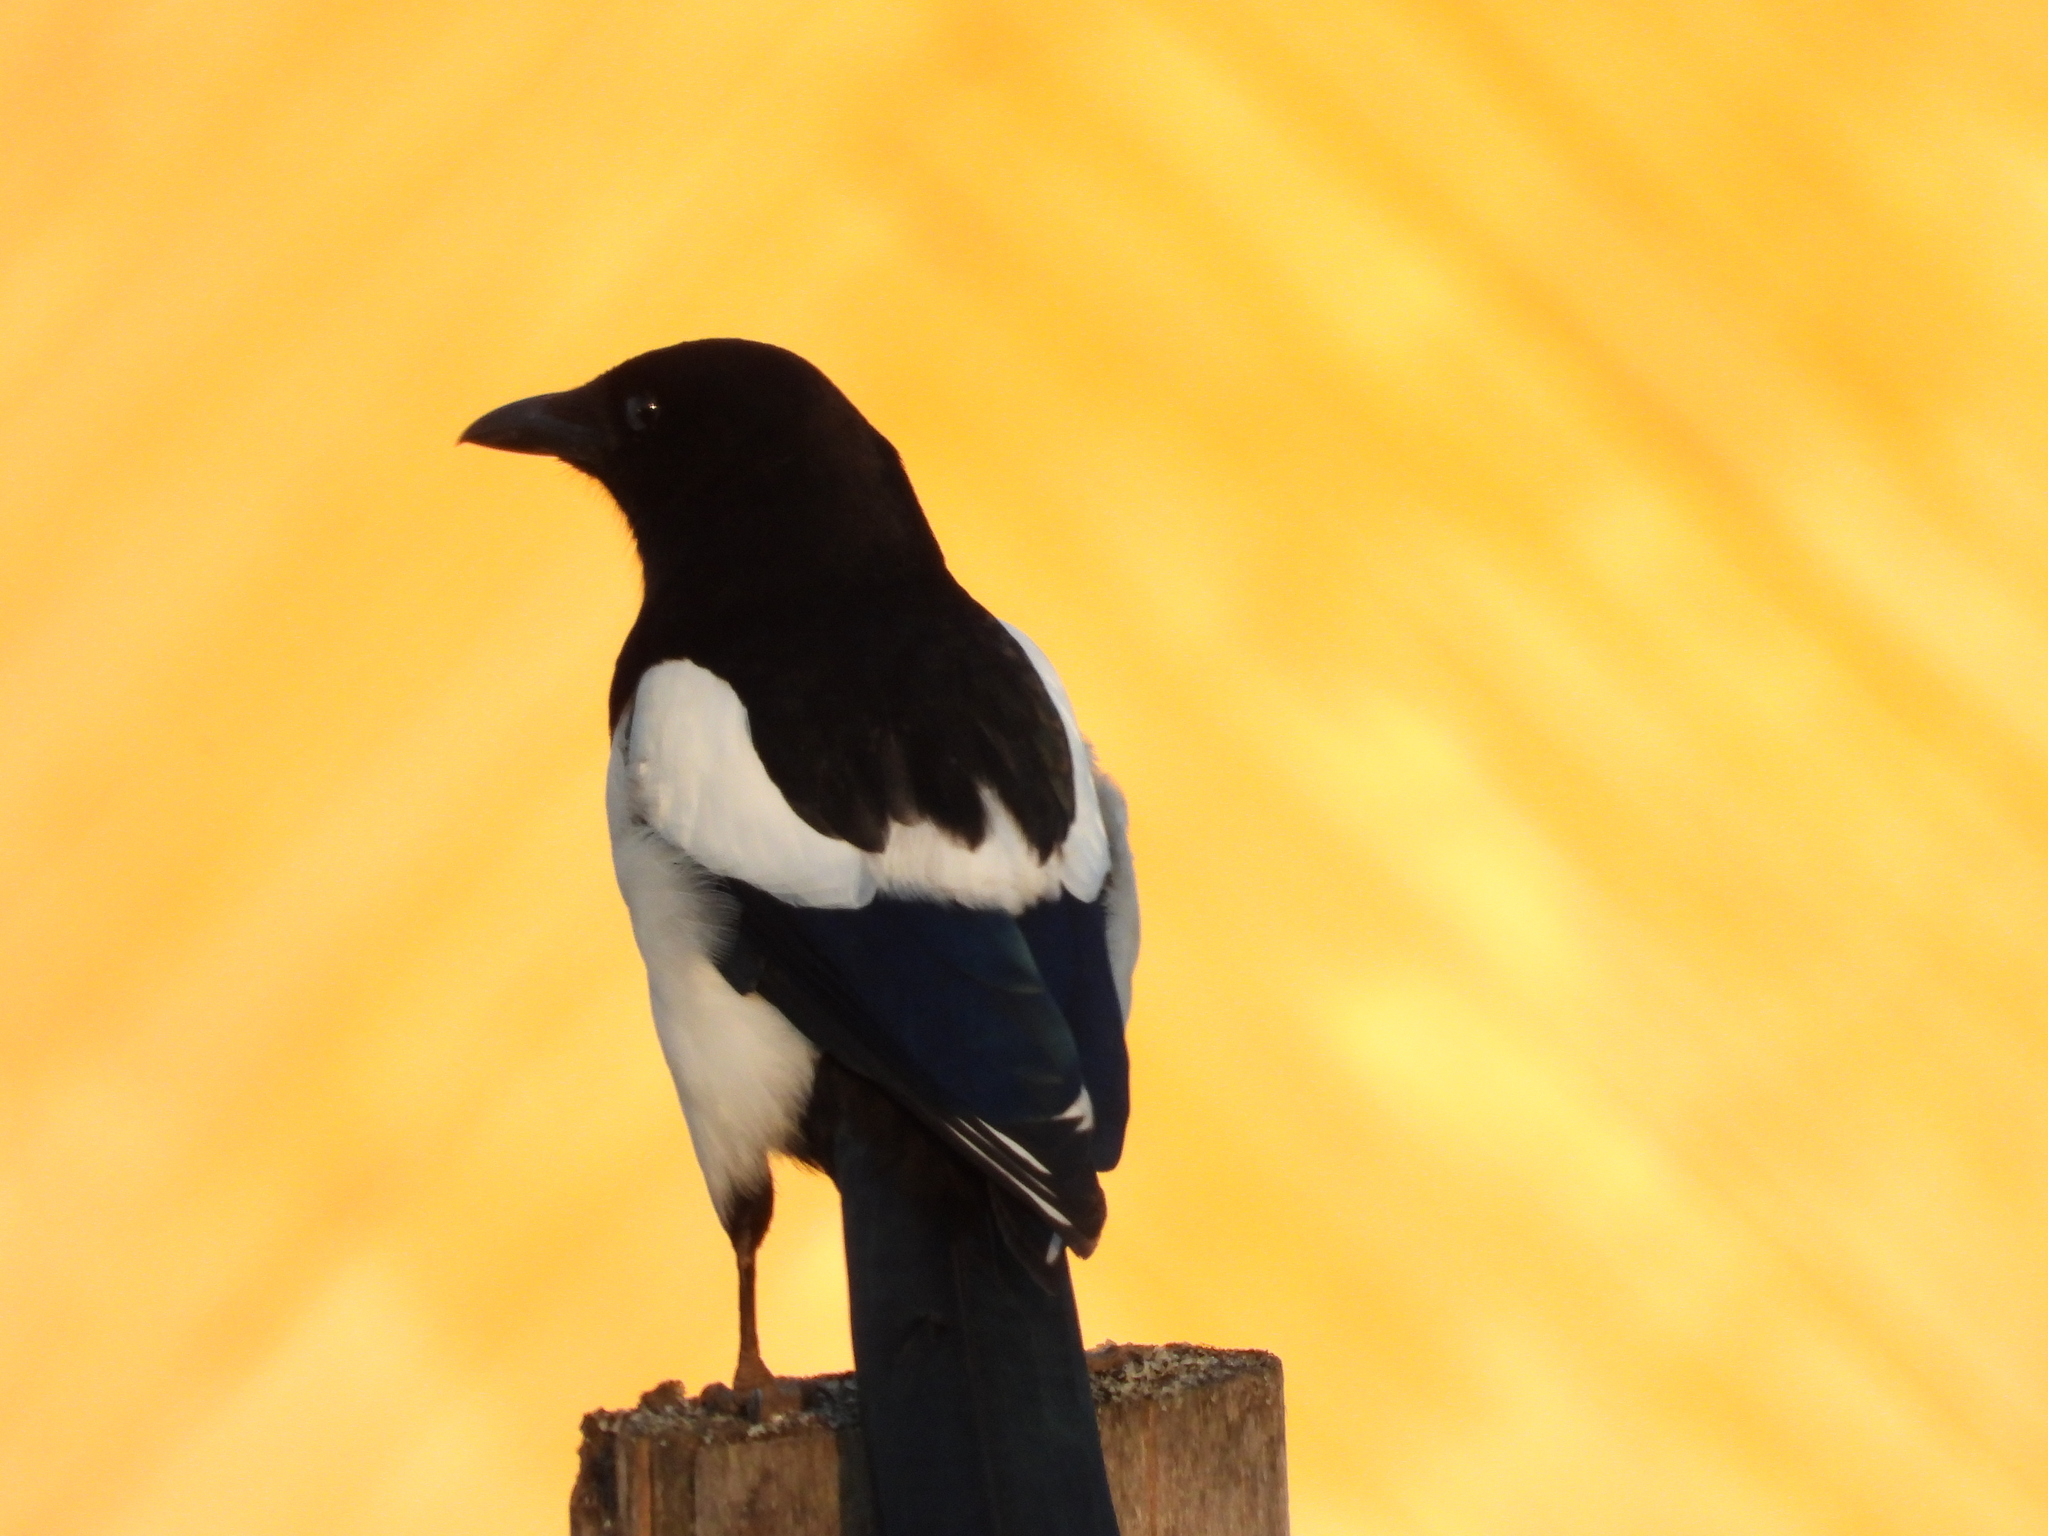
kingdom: Animalia
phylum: Chordata
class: Aves
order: Passeriformes
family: Corvidae
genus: Pica
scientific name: Pica pica
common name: Eurasian magpie
